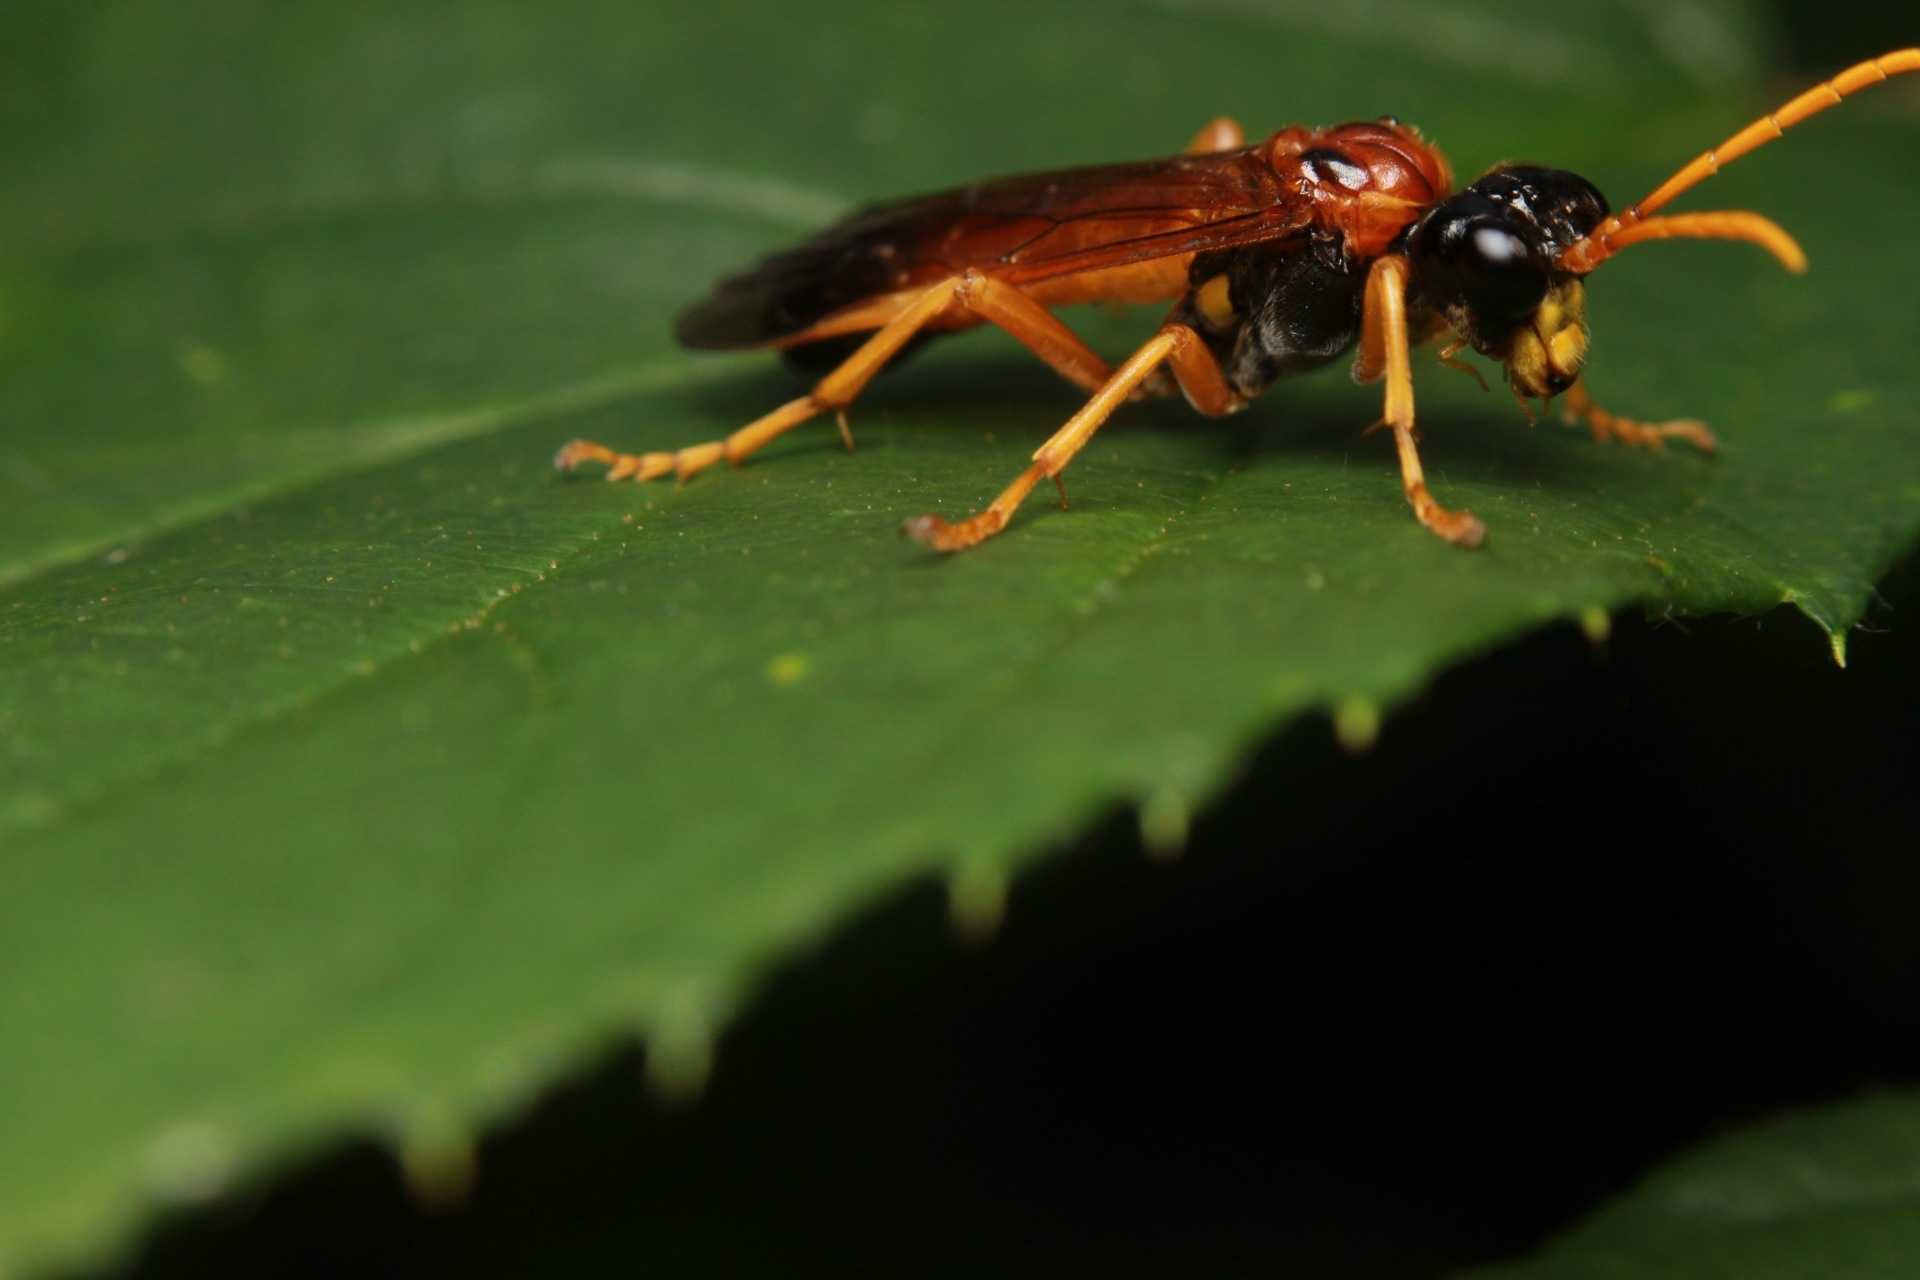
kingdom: Animalia
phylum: Arthropoda
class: Insecta
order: Hymenoptera
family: Tenthredinidae
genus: Tenthredo
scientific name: Tenthredo campestris
